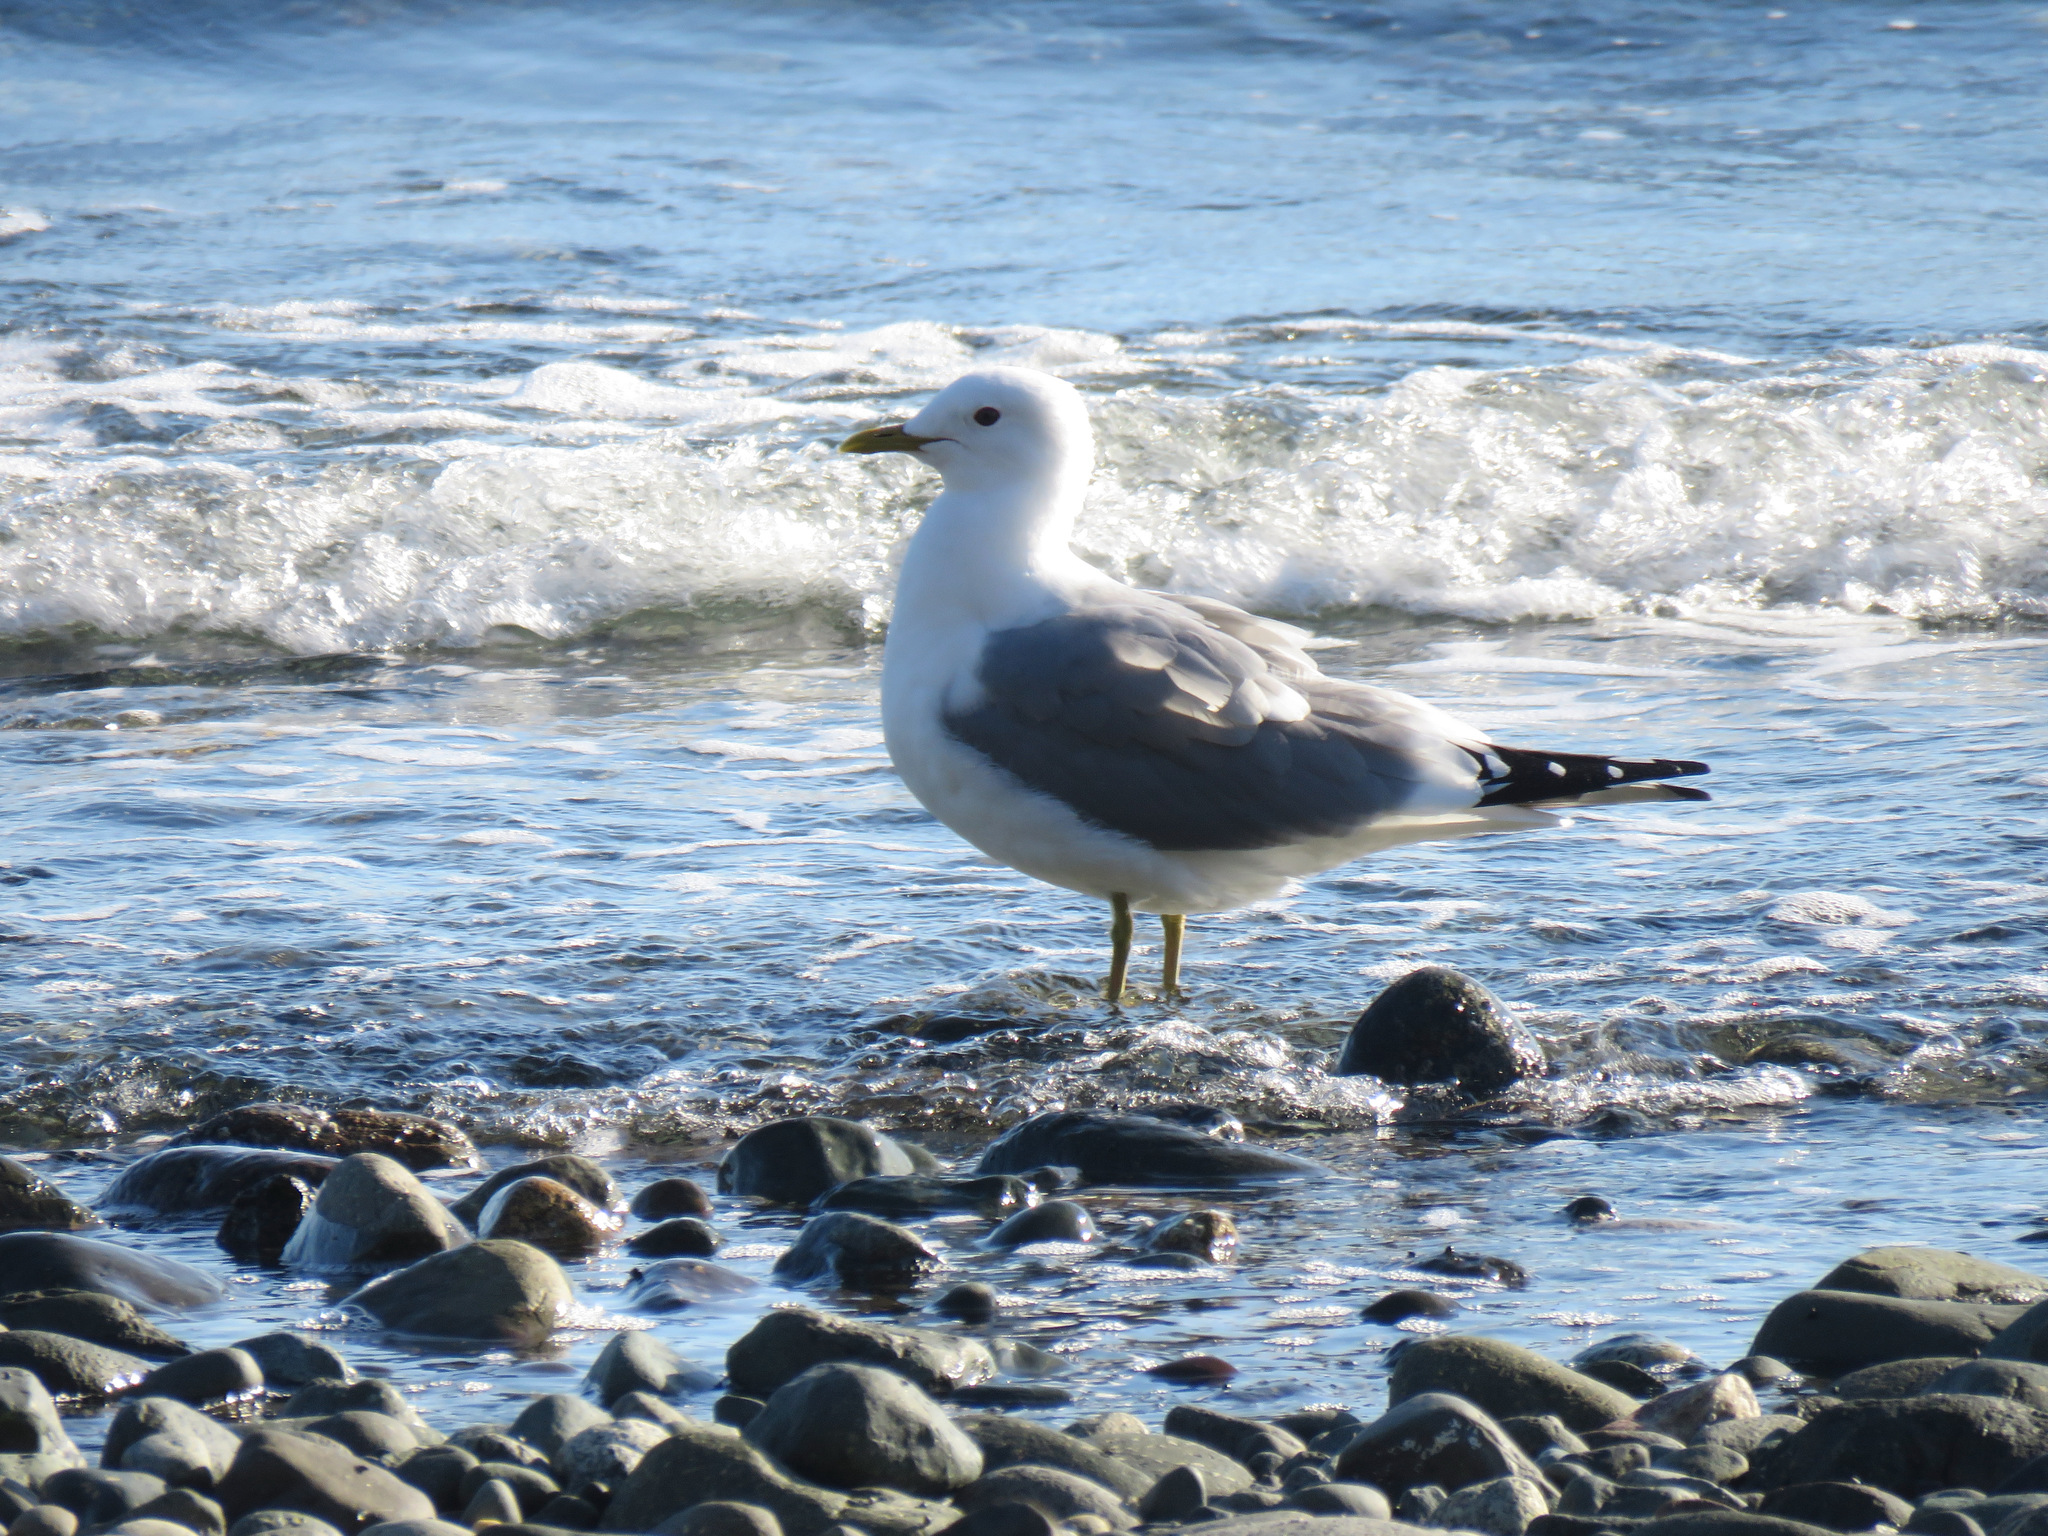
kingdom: Animalia
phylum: Chordata
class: Aves
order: Charadriiformes
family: Laridae
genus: Larus
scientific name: Larus brachyrhynchus
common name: Short-billed gull
